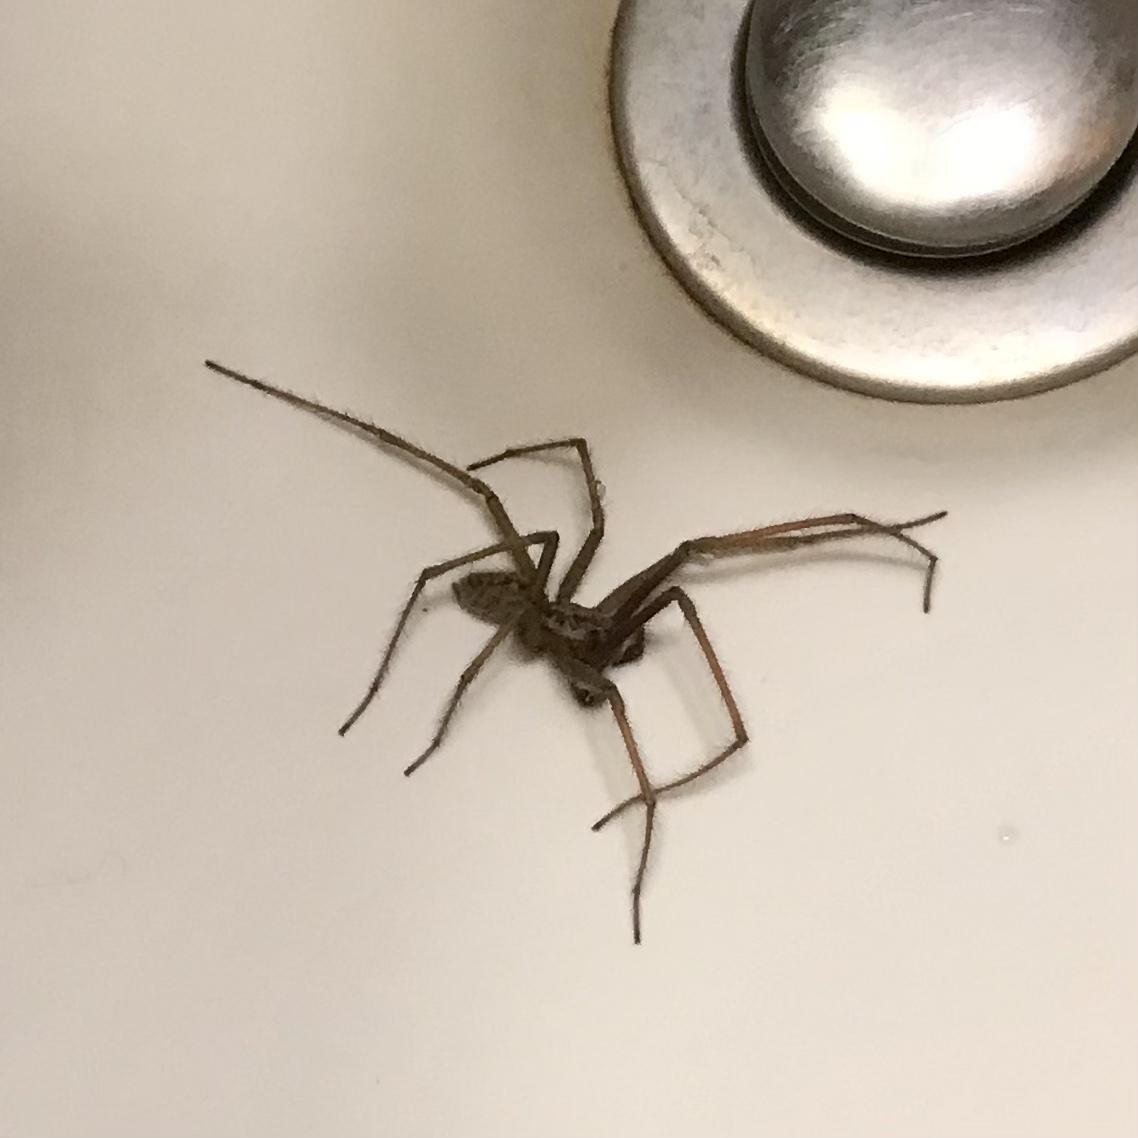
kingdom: Animalia
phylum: Arthropoda
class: Arachnida
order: Araneae
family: Agelenidae
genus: Eratigena
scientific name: Eratigena duellica
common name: Giant house spider
